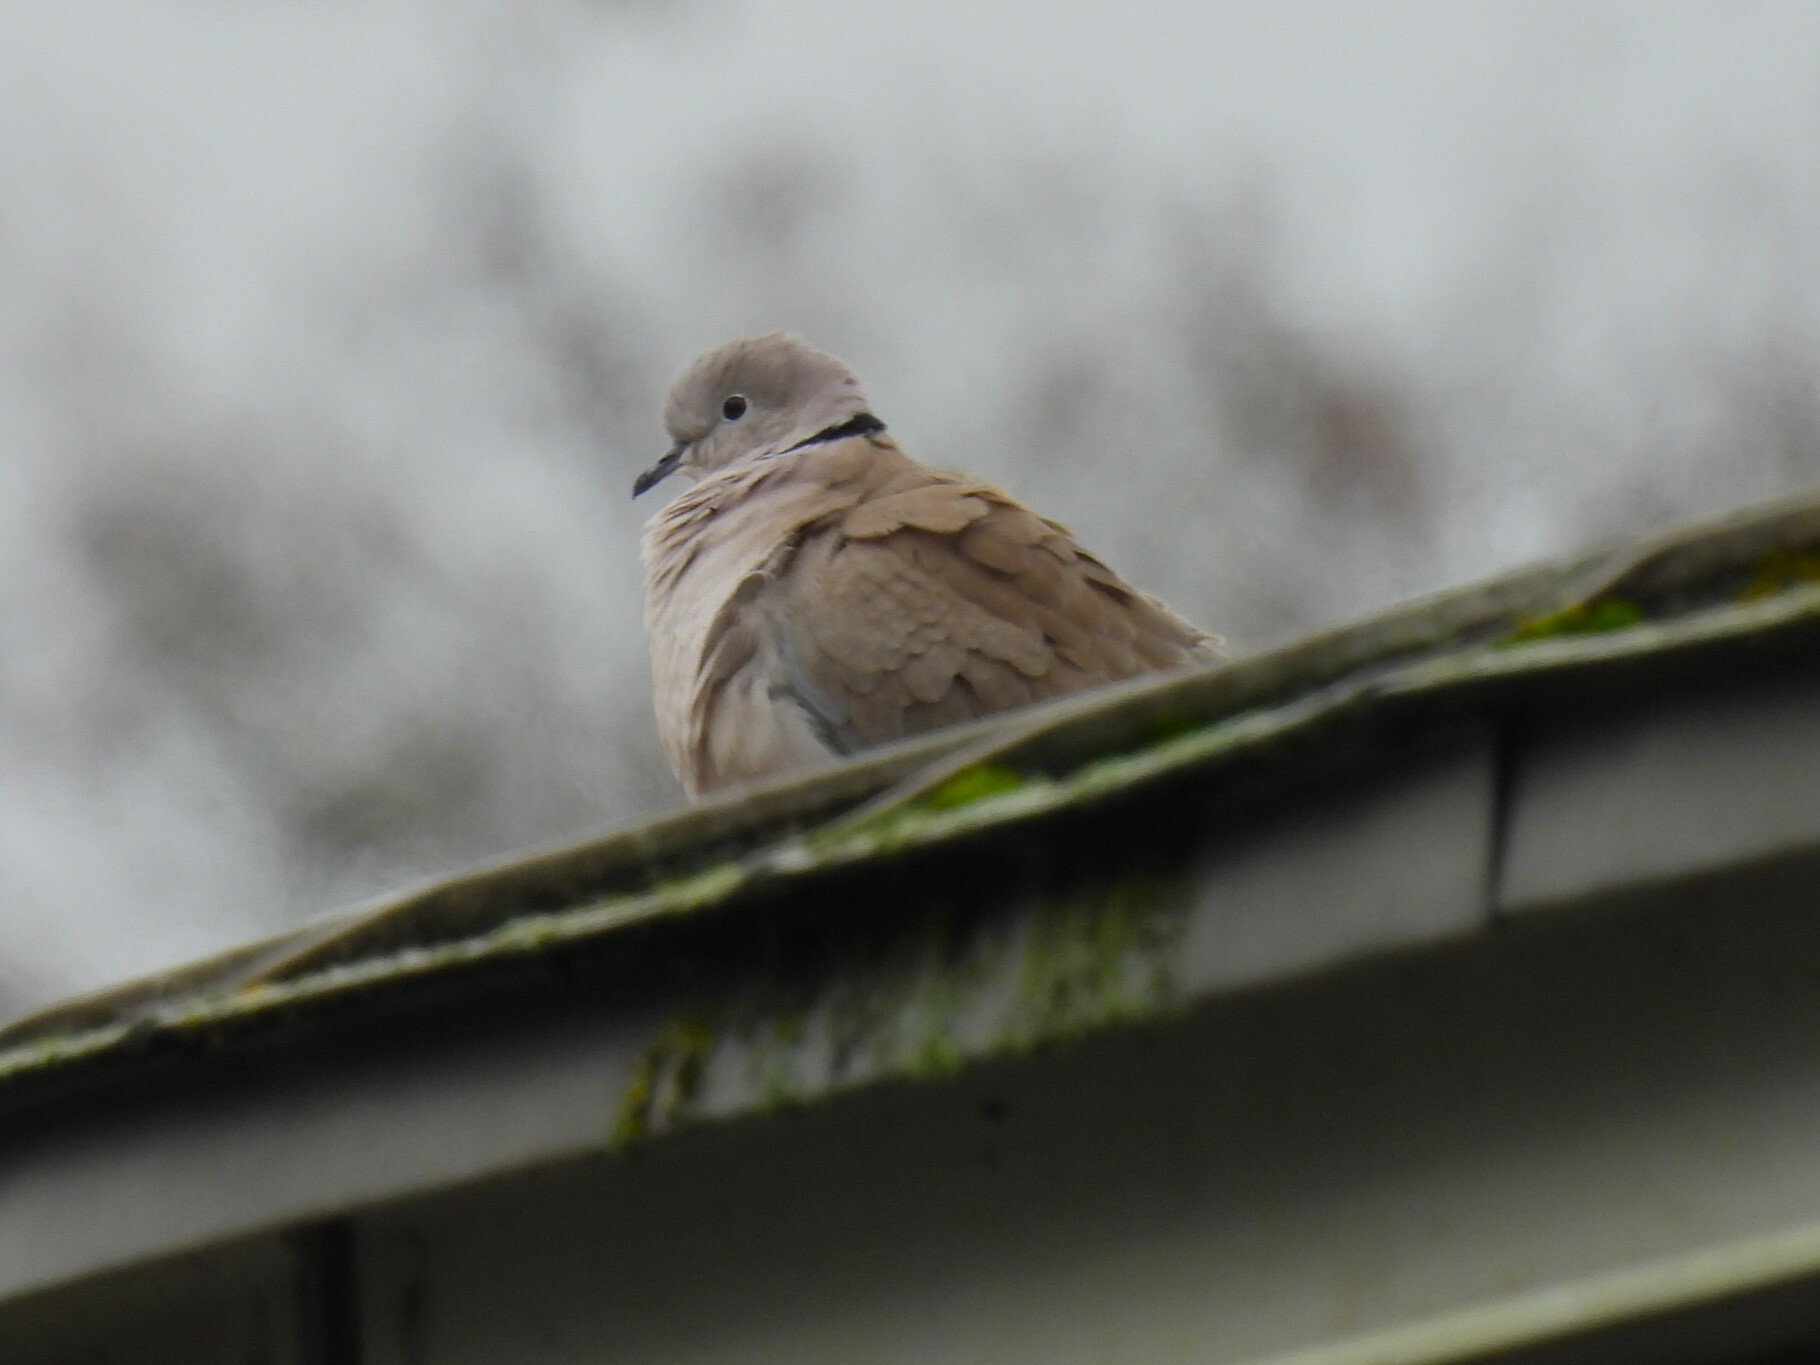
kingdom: Animalia
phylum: Chordata
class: Aves
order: Columbiformes
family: Columbidae
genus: Streptopelia
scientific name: Streptopelia decaocto
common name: Eurasian collared dove
